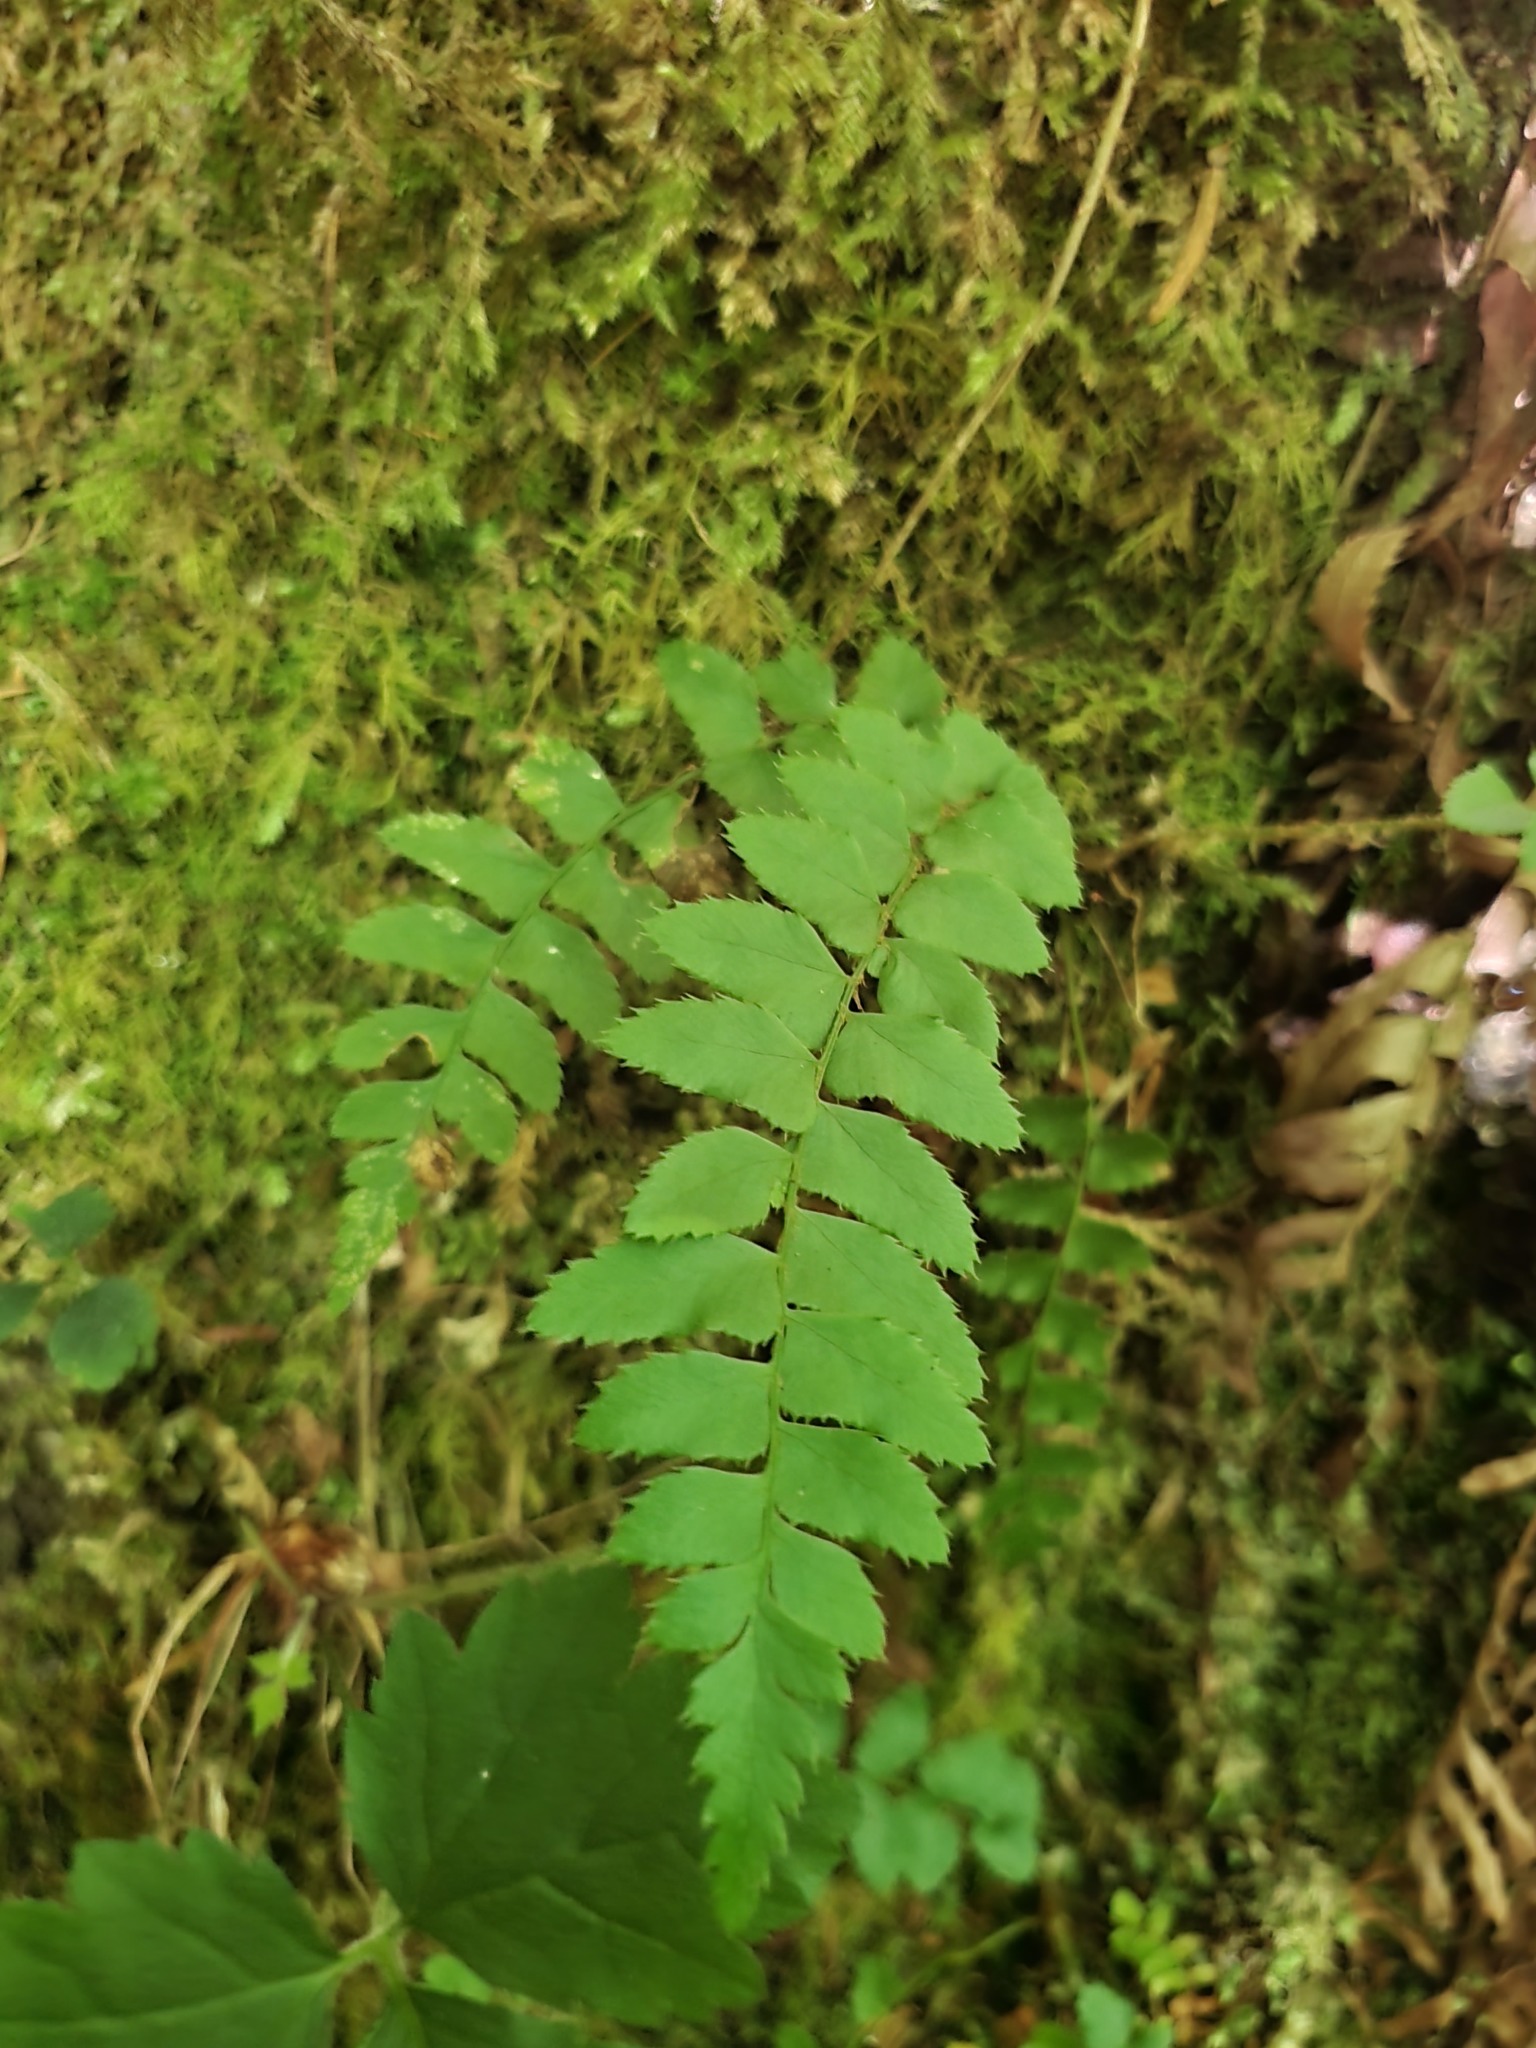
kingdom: Plantae
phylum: Tracheophyta
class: Polypodiopsida
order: Polypodiales
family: Dryopteridaceae
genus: Polystichum
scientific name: Polystichum munitum
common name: Western sword-fern
